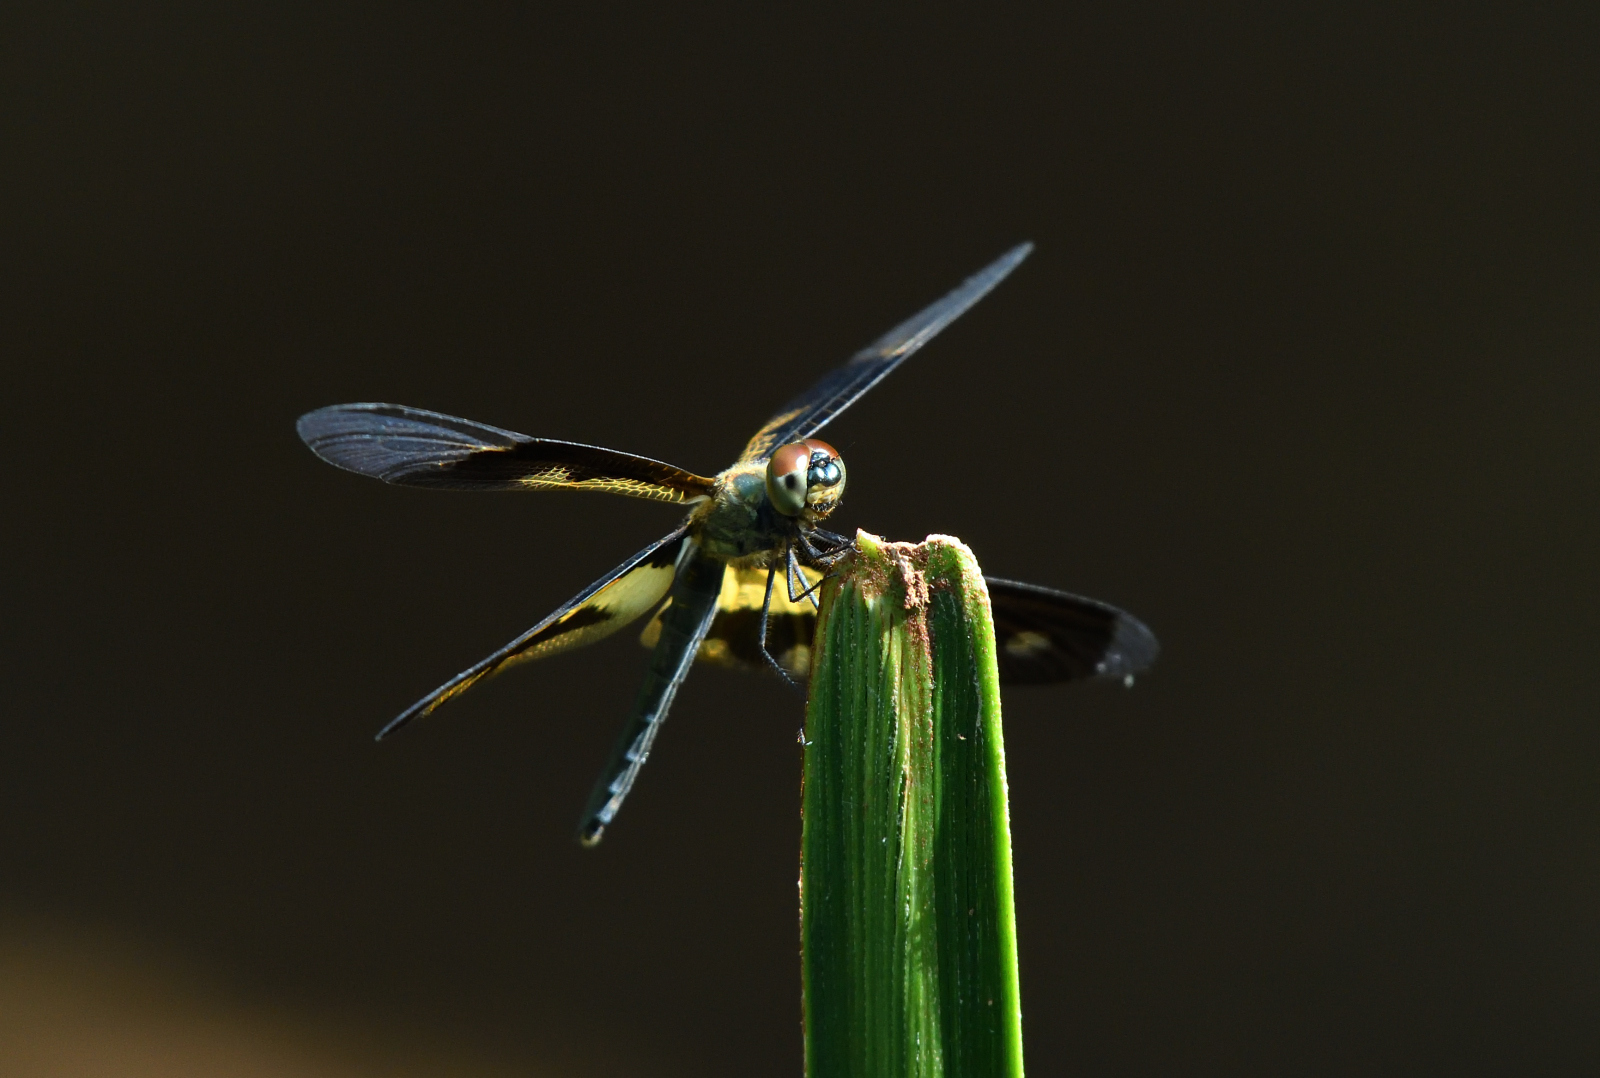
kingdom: Animalia
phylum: Arthropoda
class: Insecta
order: Odonata
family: Libellulidae
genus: Rhyothemis
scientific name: Rhyothemis variegata
